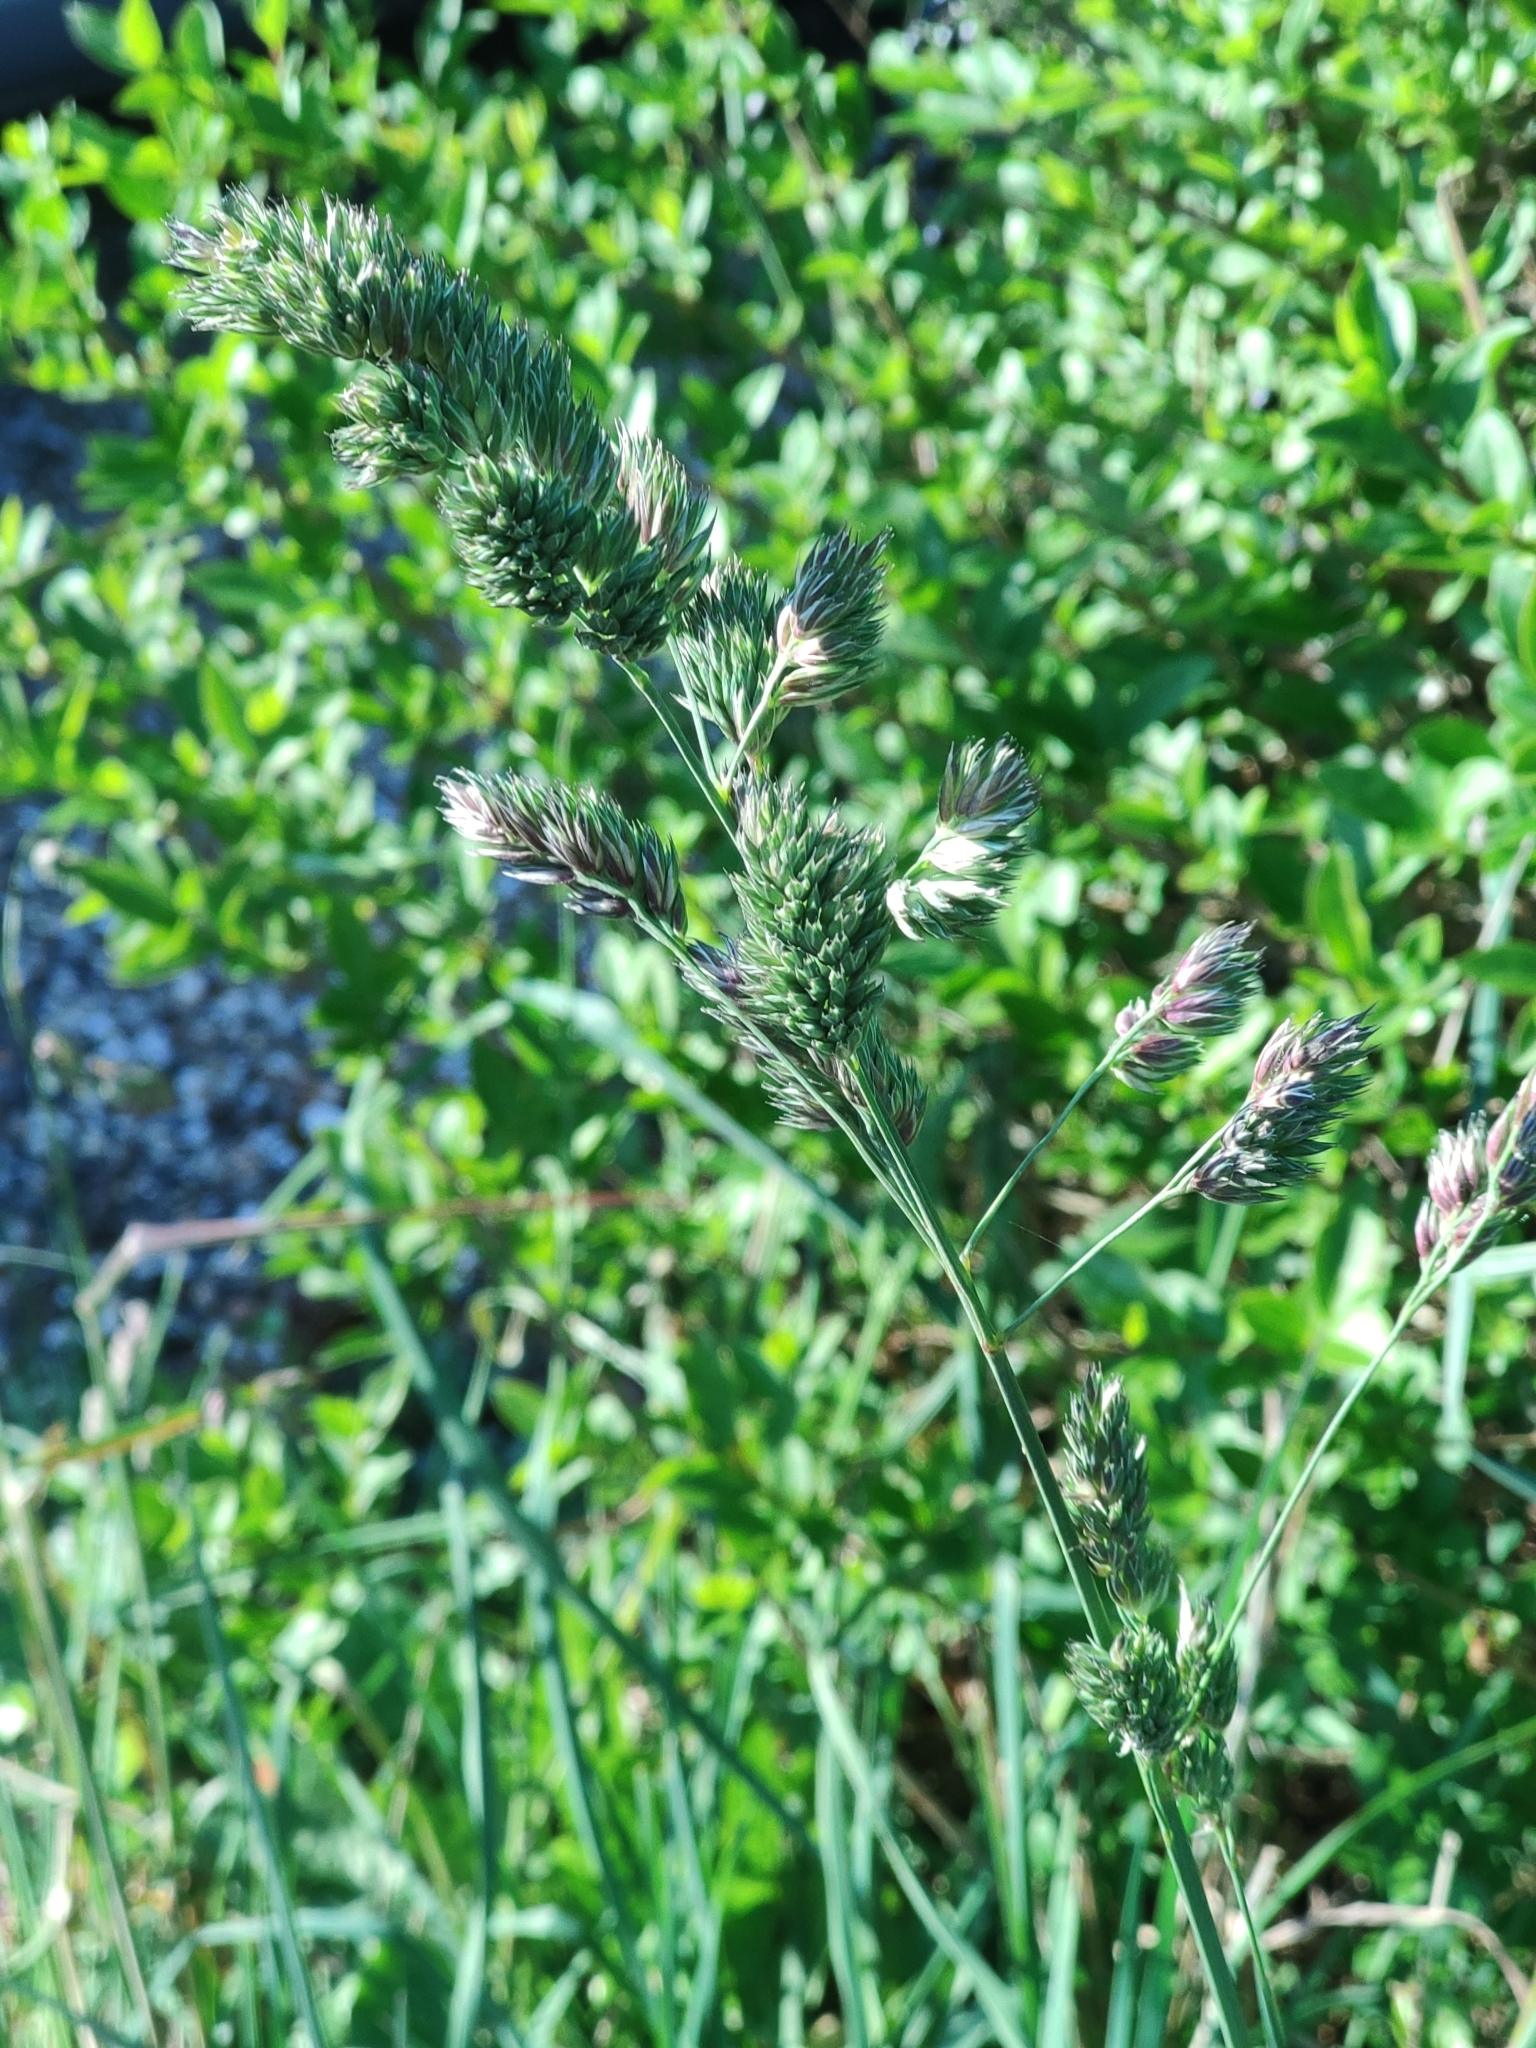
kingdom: Plantae
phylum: Tracheophyta
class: Liliopsida
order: Poales
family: Poaceae
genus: Dactylis
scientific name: Dactylis glomerata
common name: Orchardgrass
